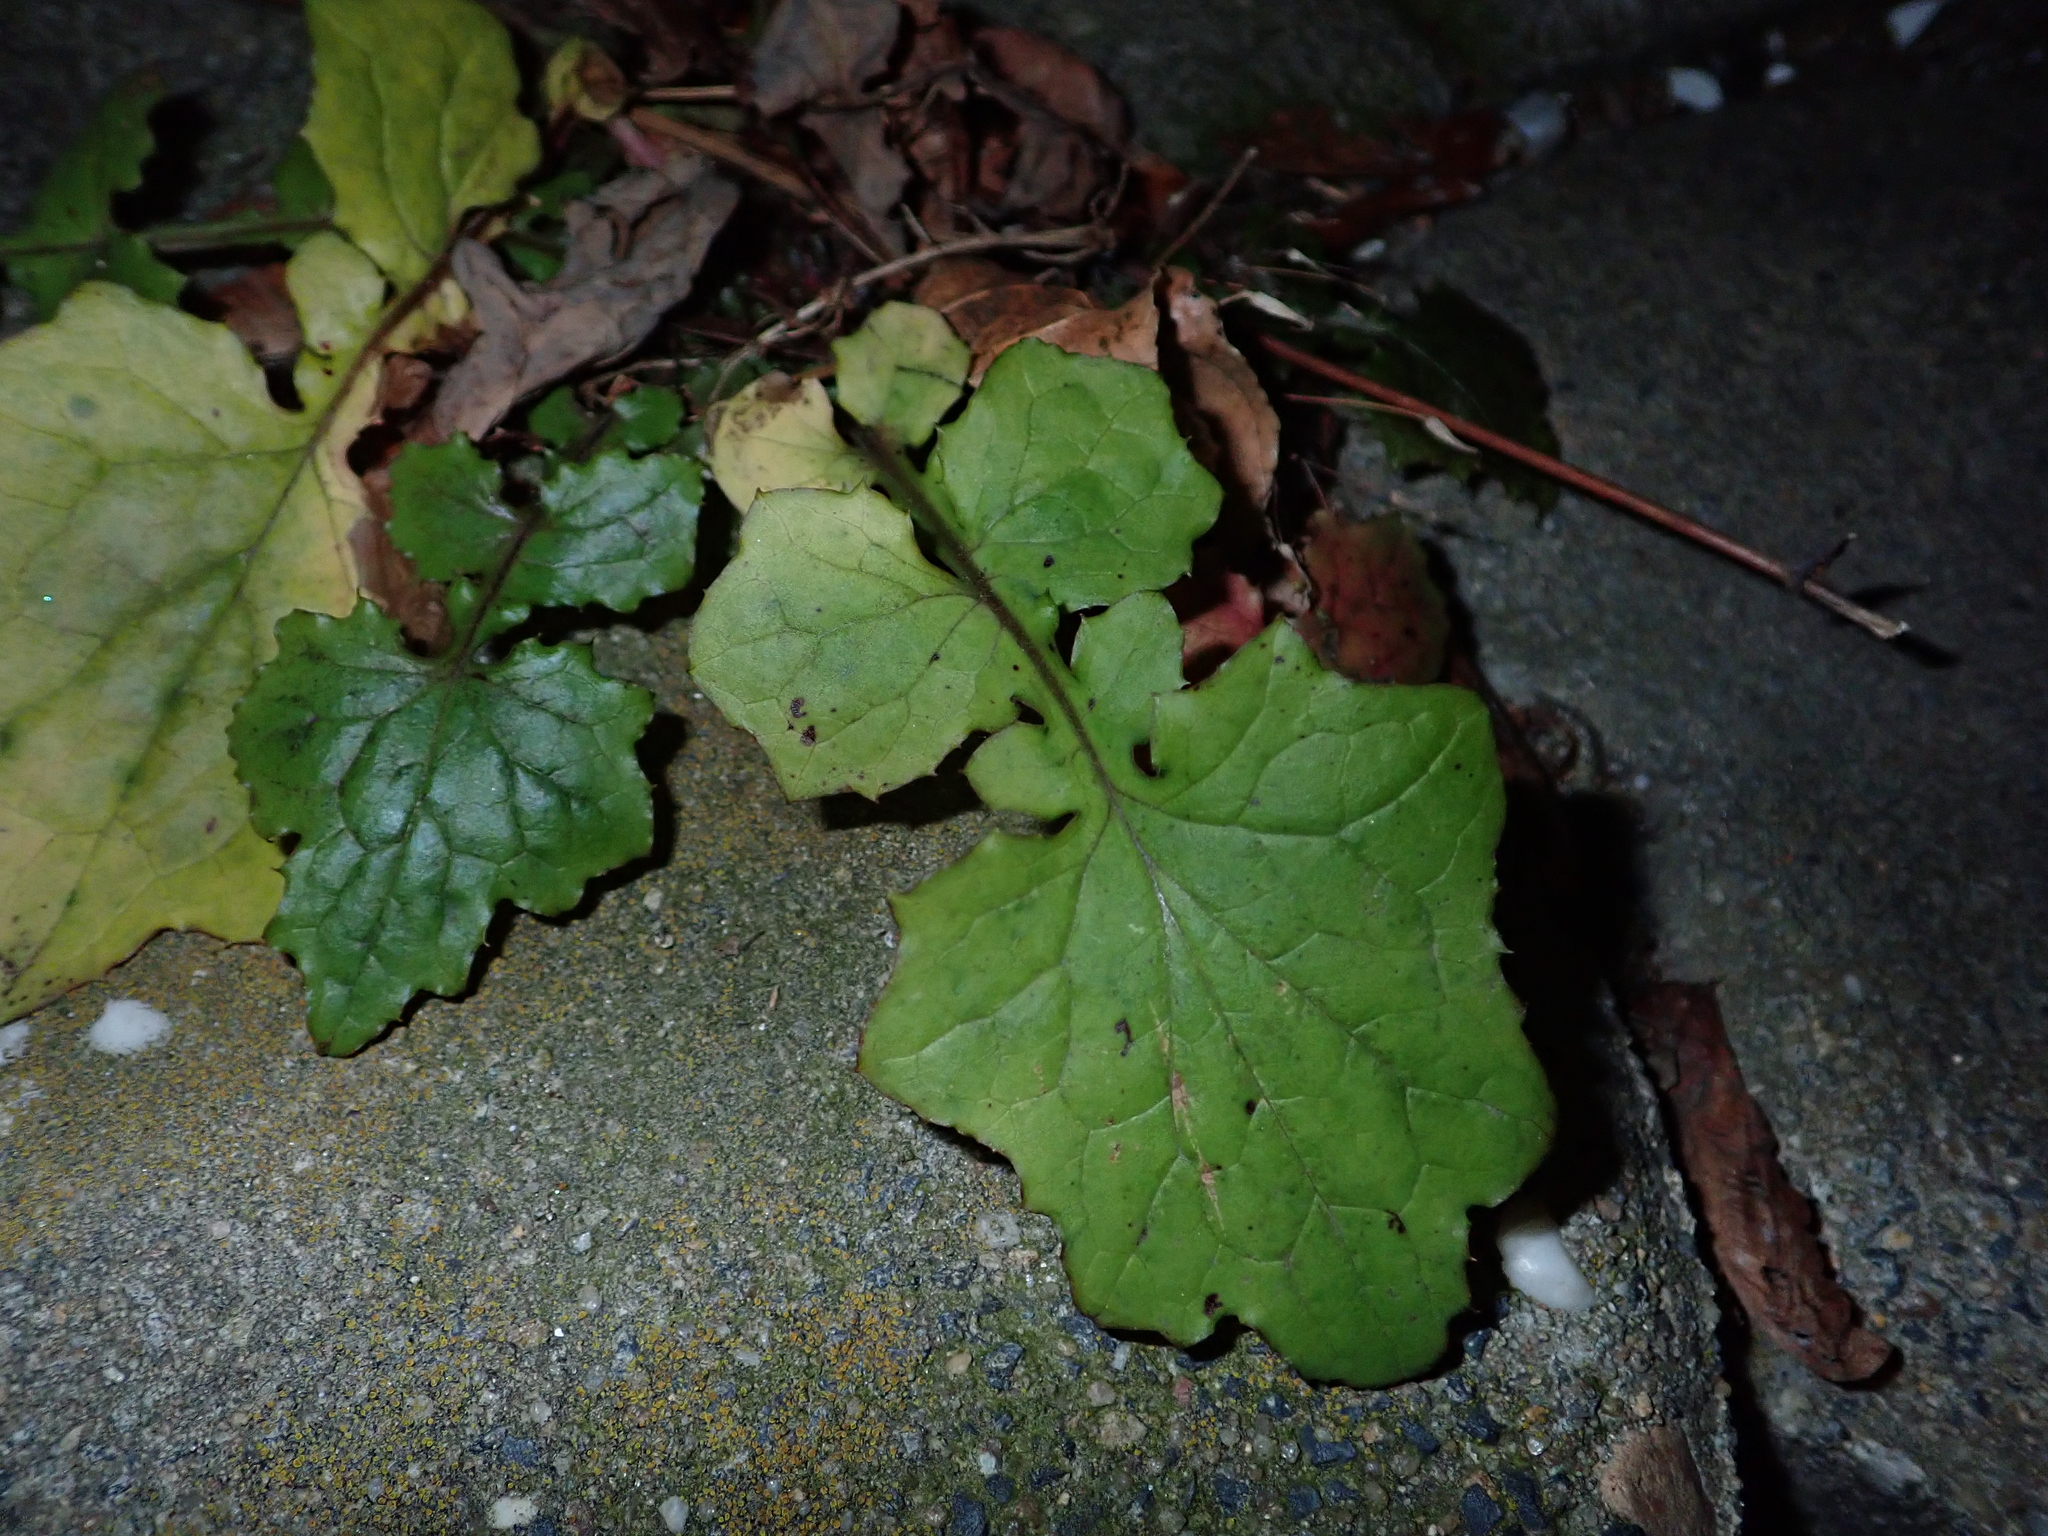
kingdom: Plantae
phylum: Tracheophyta
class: Magnoliopsida
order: Asterales
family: Asteraceae
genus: Mycelis
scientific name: Mycelis muralis
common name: Wall lettuce
